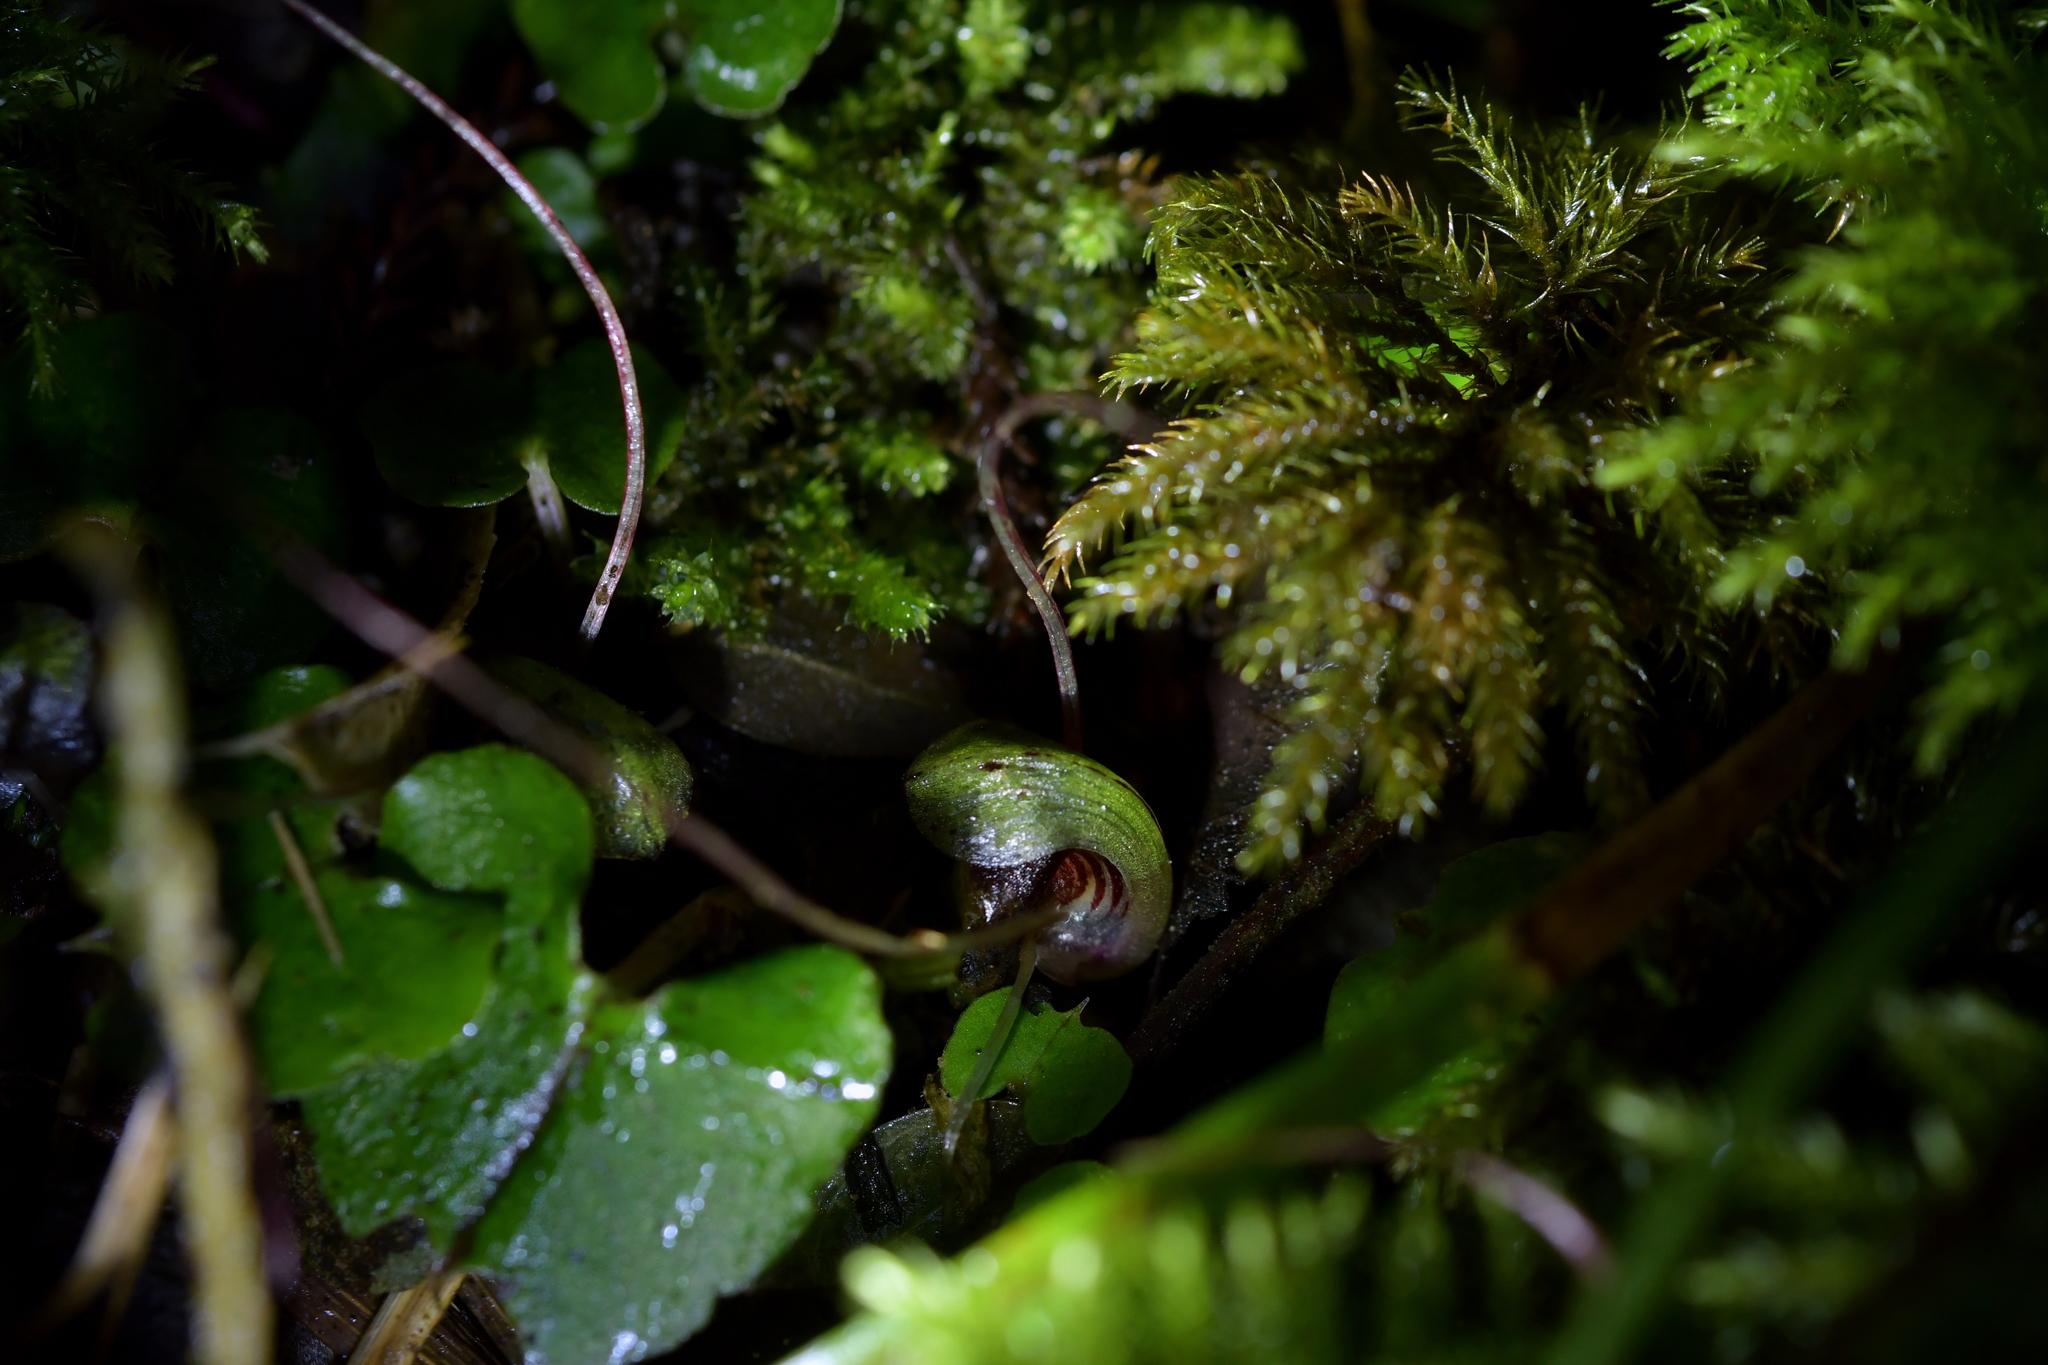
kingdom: Plantae
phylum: Tracheophyta
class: Liliopsida
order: Asparagales
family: Orchidaceae
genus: Corybas
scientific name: Corybas sanctigeorgianus
